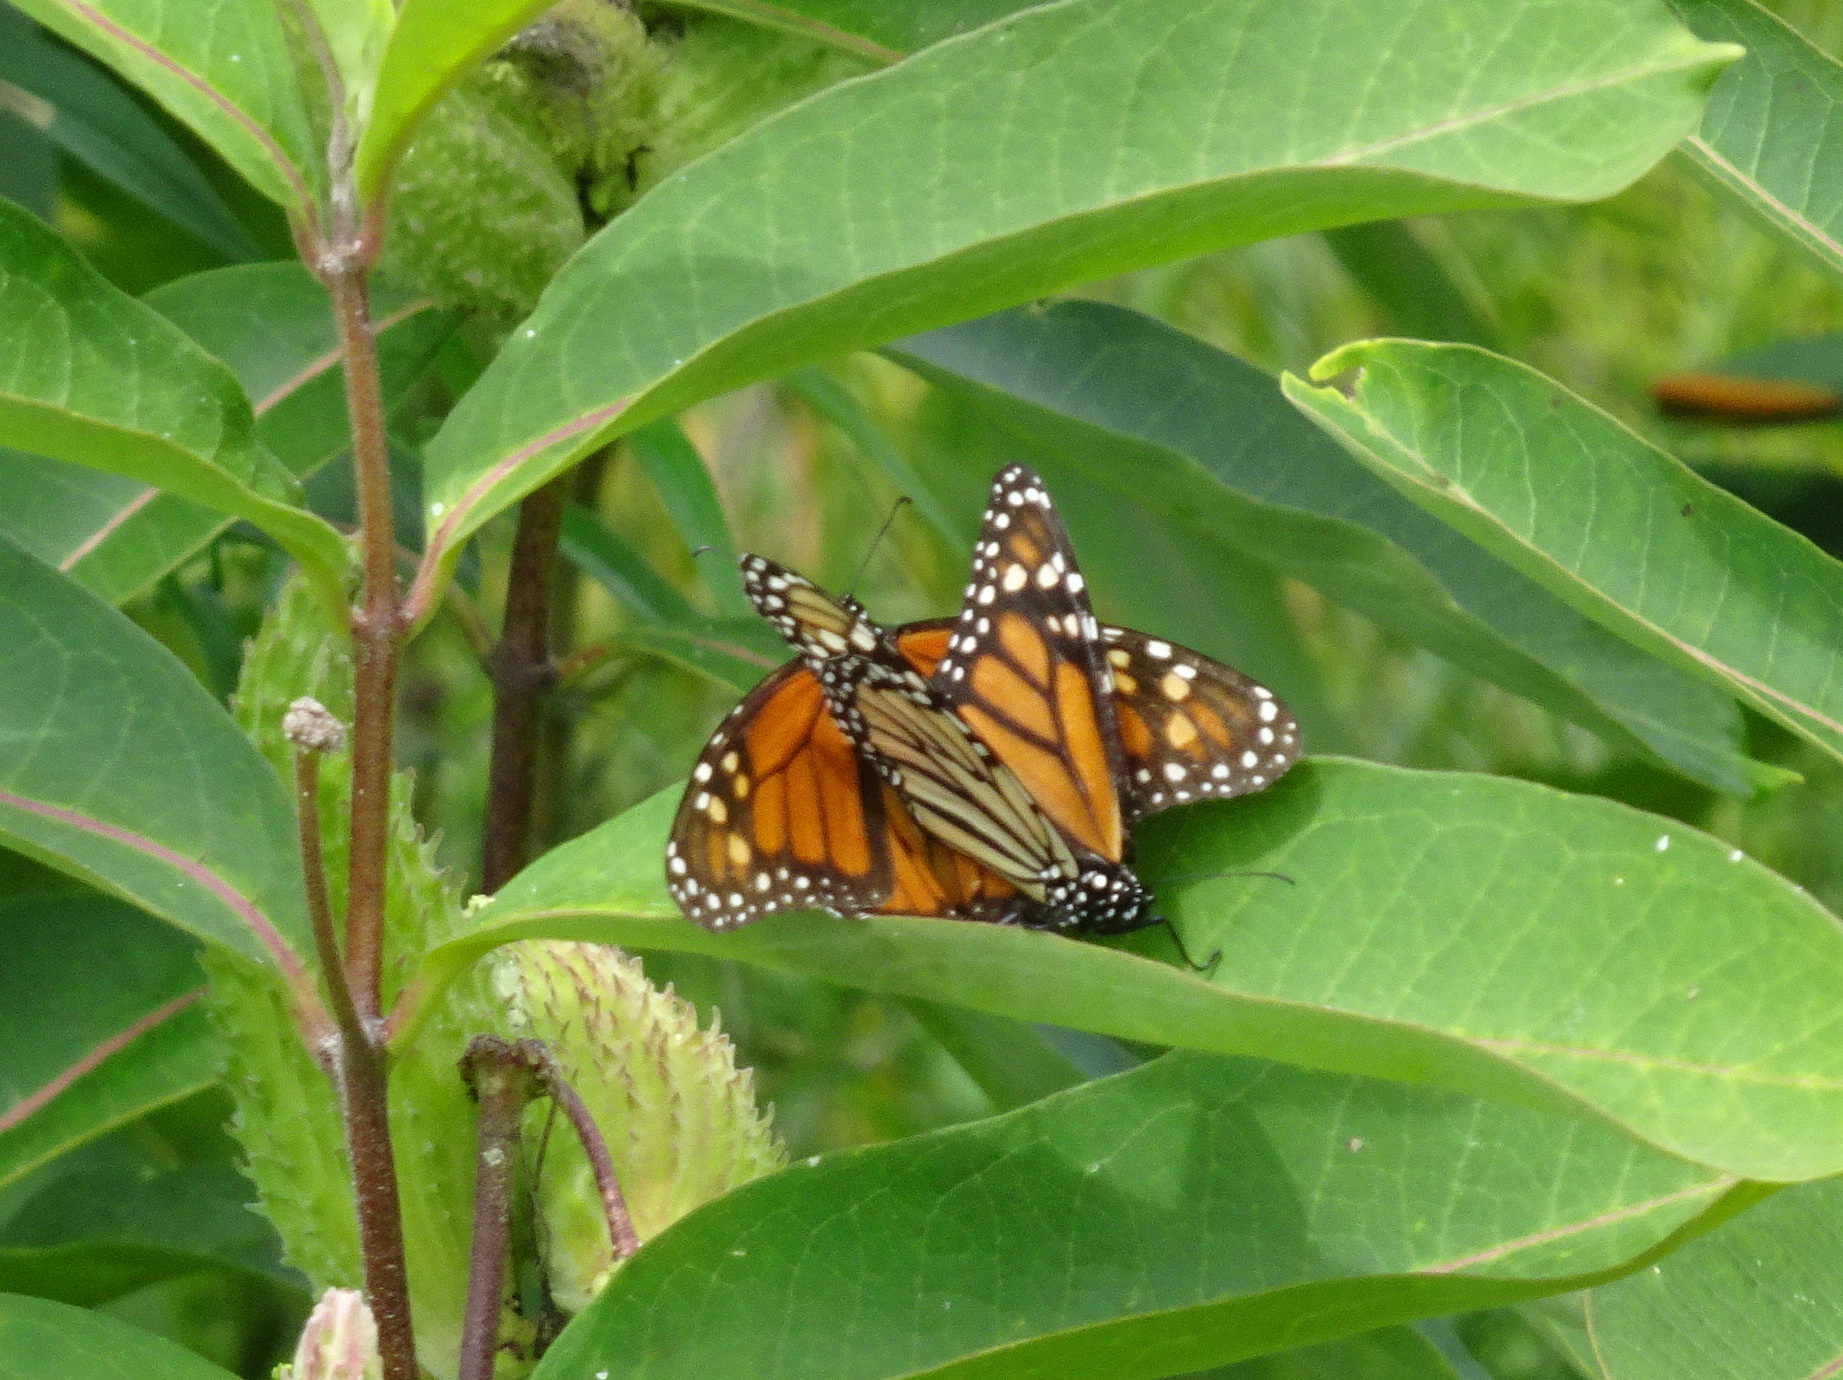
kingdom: Animalia
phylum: Arthropoda
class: Insecta
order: Lepidoptera
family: Nymphalidae
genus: Danaus
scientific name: Danaus plexippus
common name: Monarch
